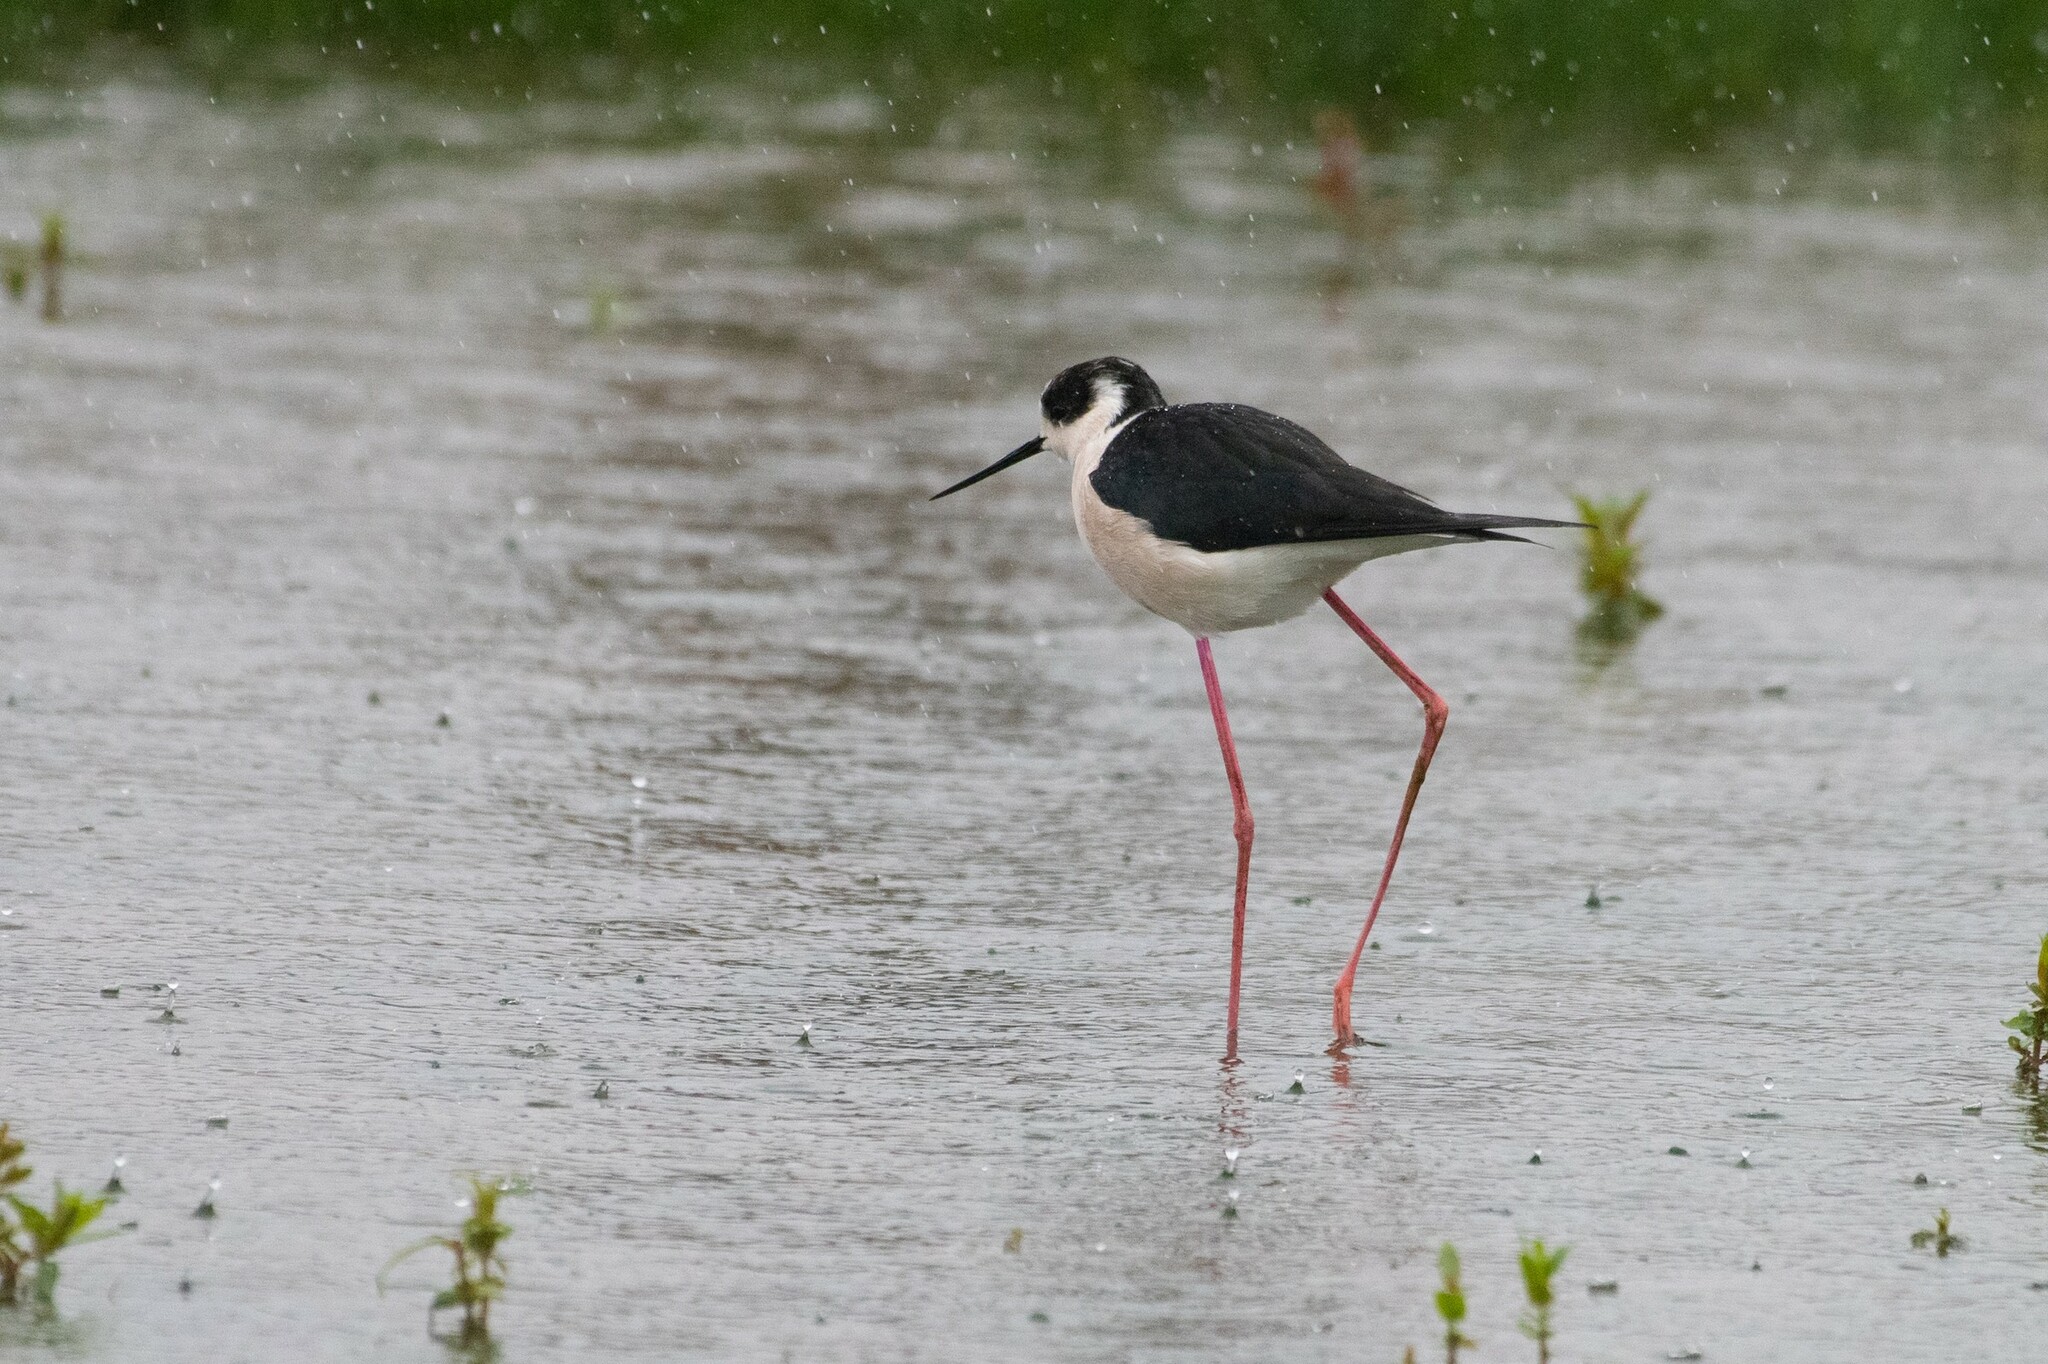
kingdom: Animalia
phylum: Chordata
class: Aves
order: Charadriiformes
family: Recurvirostridae
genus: Himantopus
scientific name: Himantopus himantopus
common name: Black-winged stilt
